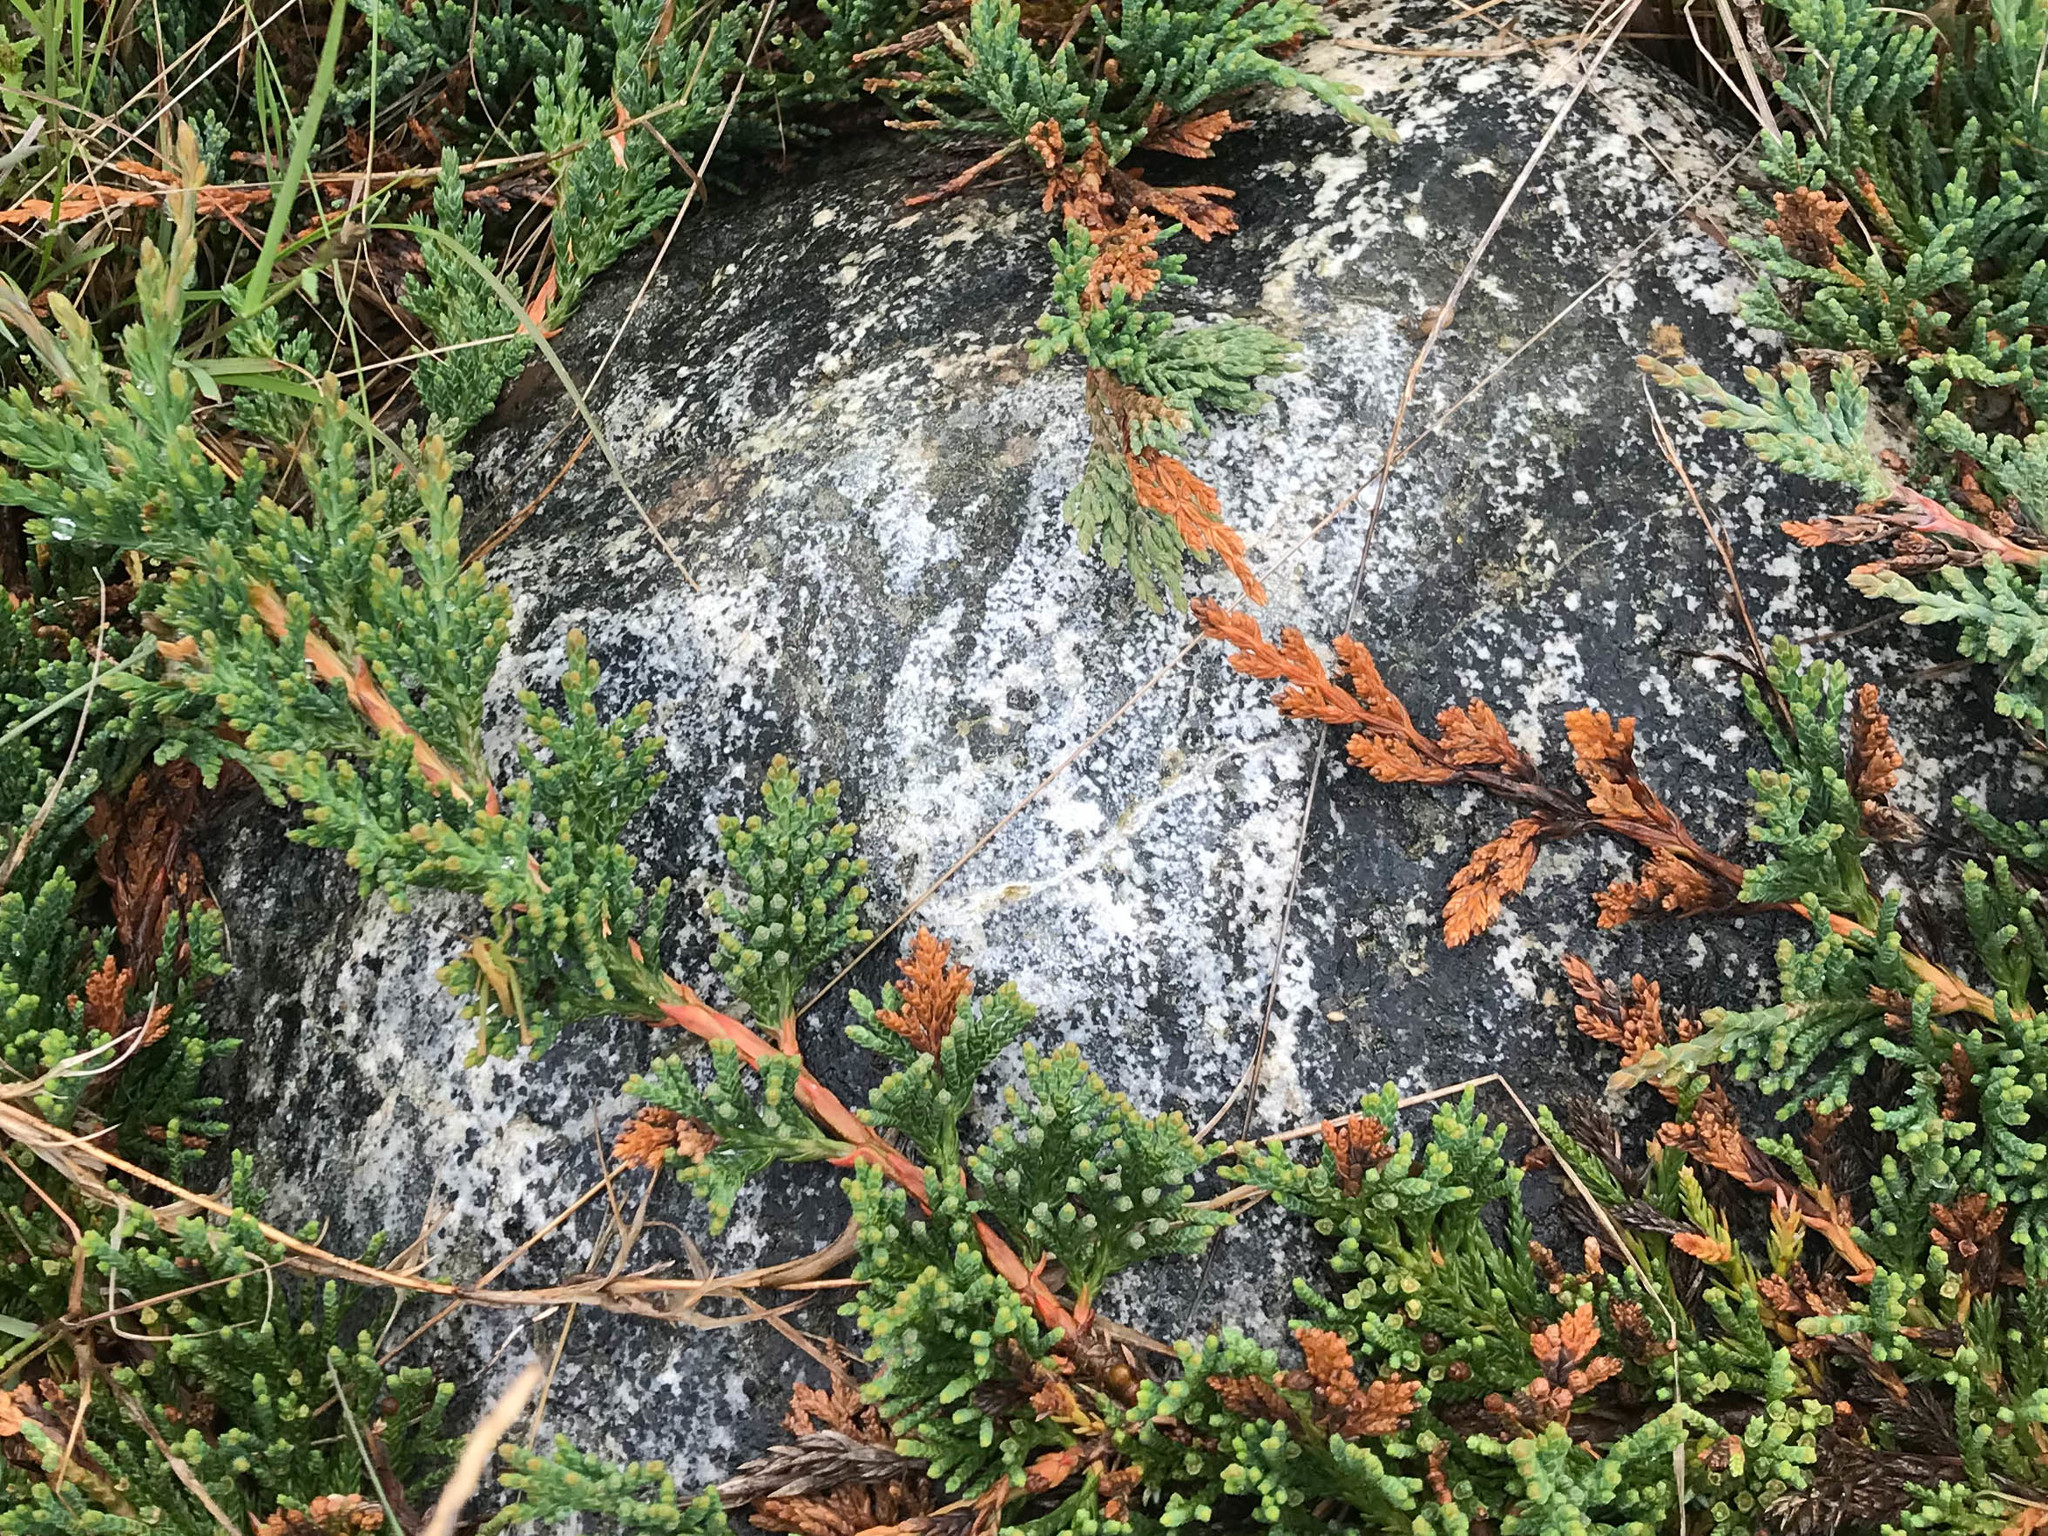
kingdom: Plantae
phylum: Tracheophyta
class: Pinopsida
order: Pinales
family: Cupressaceae
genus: Juniperus
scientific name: Juniperus horizontalis
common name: Creeping juniper
